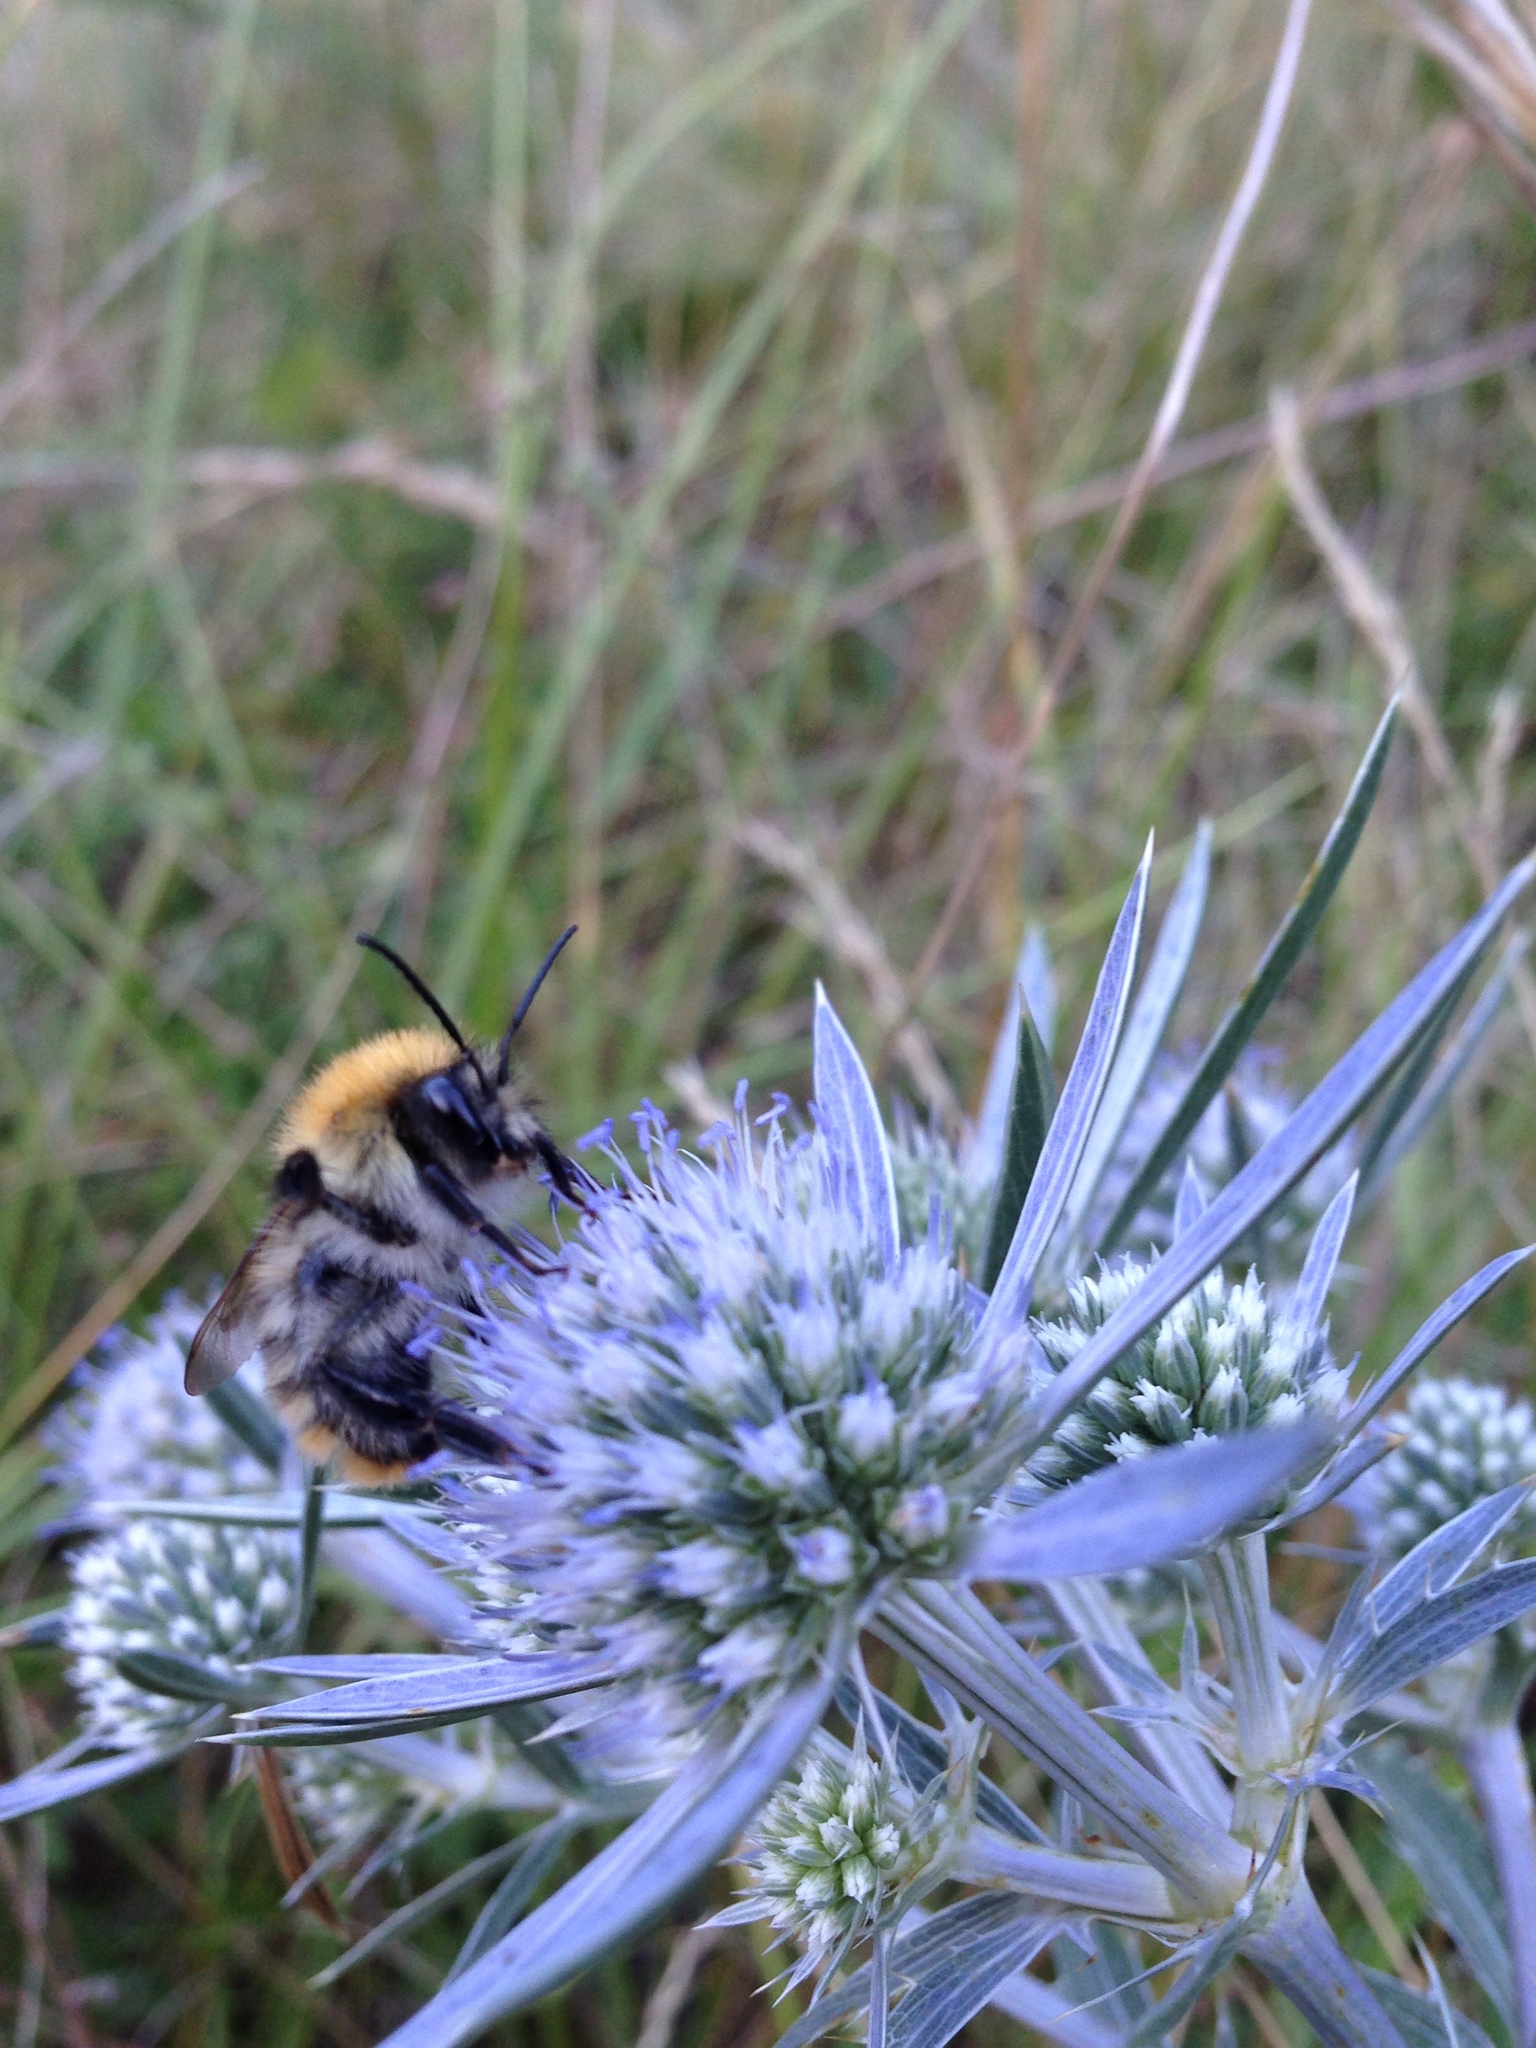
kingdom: Animalia
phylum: Arthropoda
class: Insecta
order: Hymenoptera
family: Apidae
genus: Bombus
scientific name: Bombus pascuorum
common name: Common carder bee
